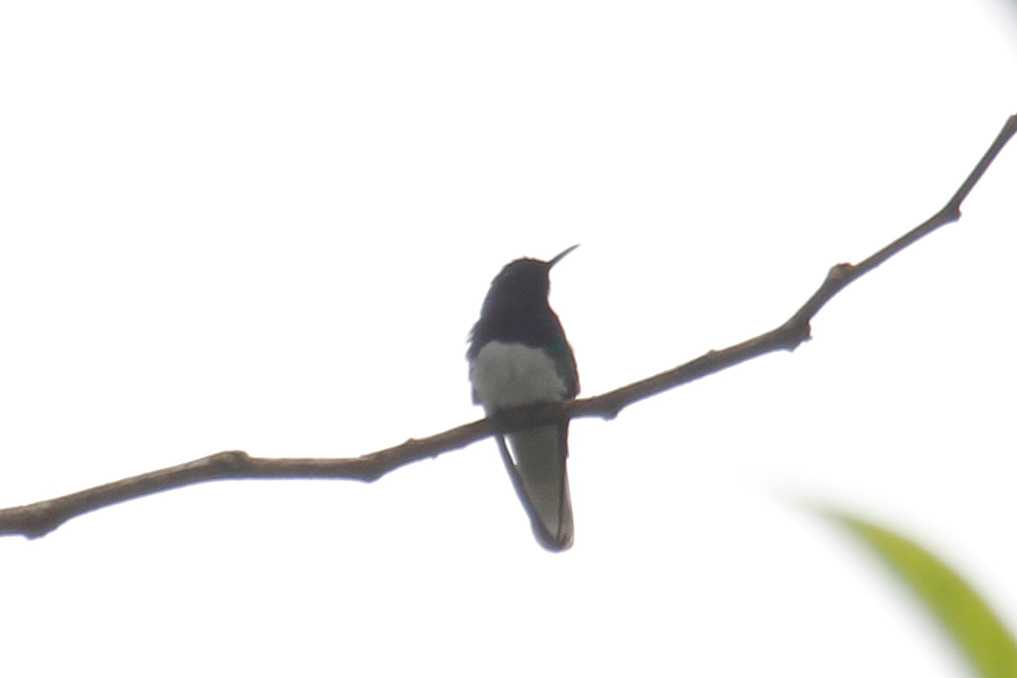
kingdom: Animalia
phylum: Chordata
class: Aves
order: Apodiformes
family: Trochilidae
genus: Florisuga
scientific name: Florisuga mellivora
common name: White-necked jacobin
